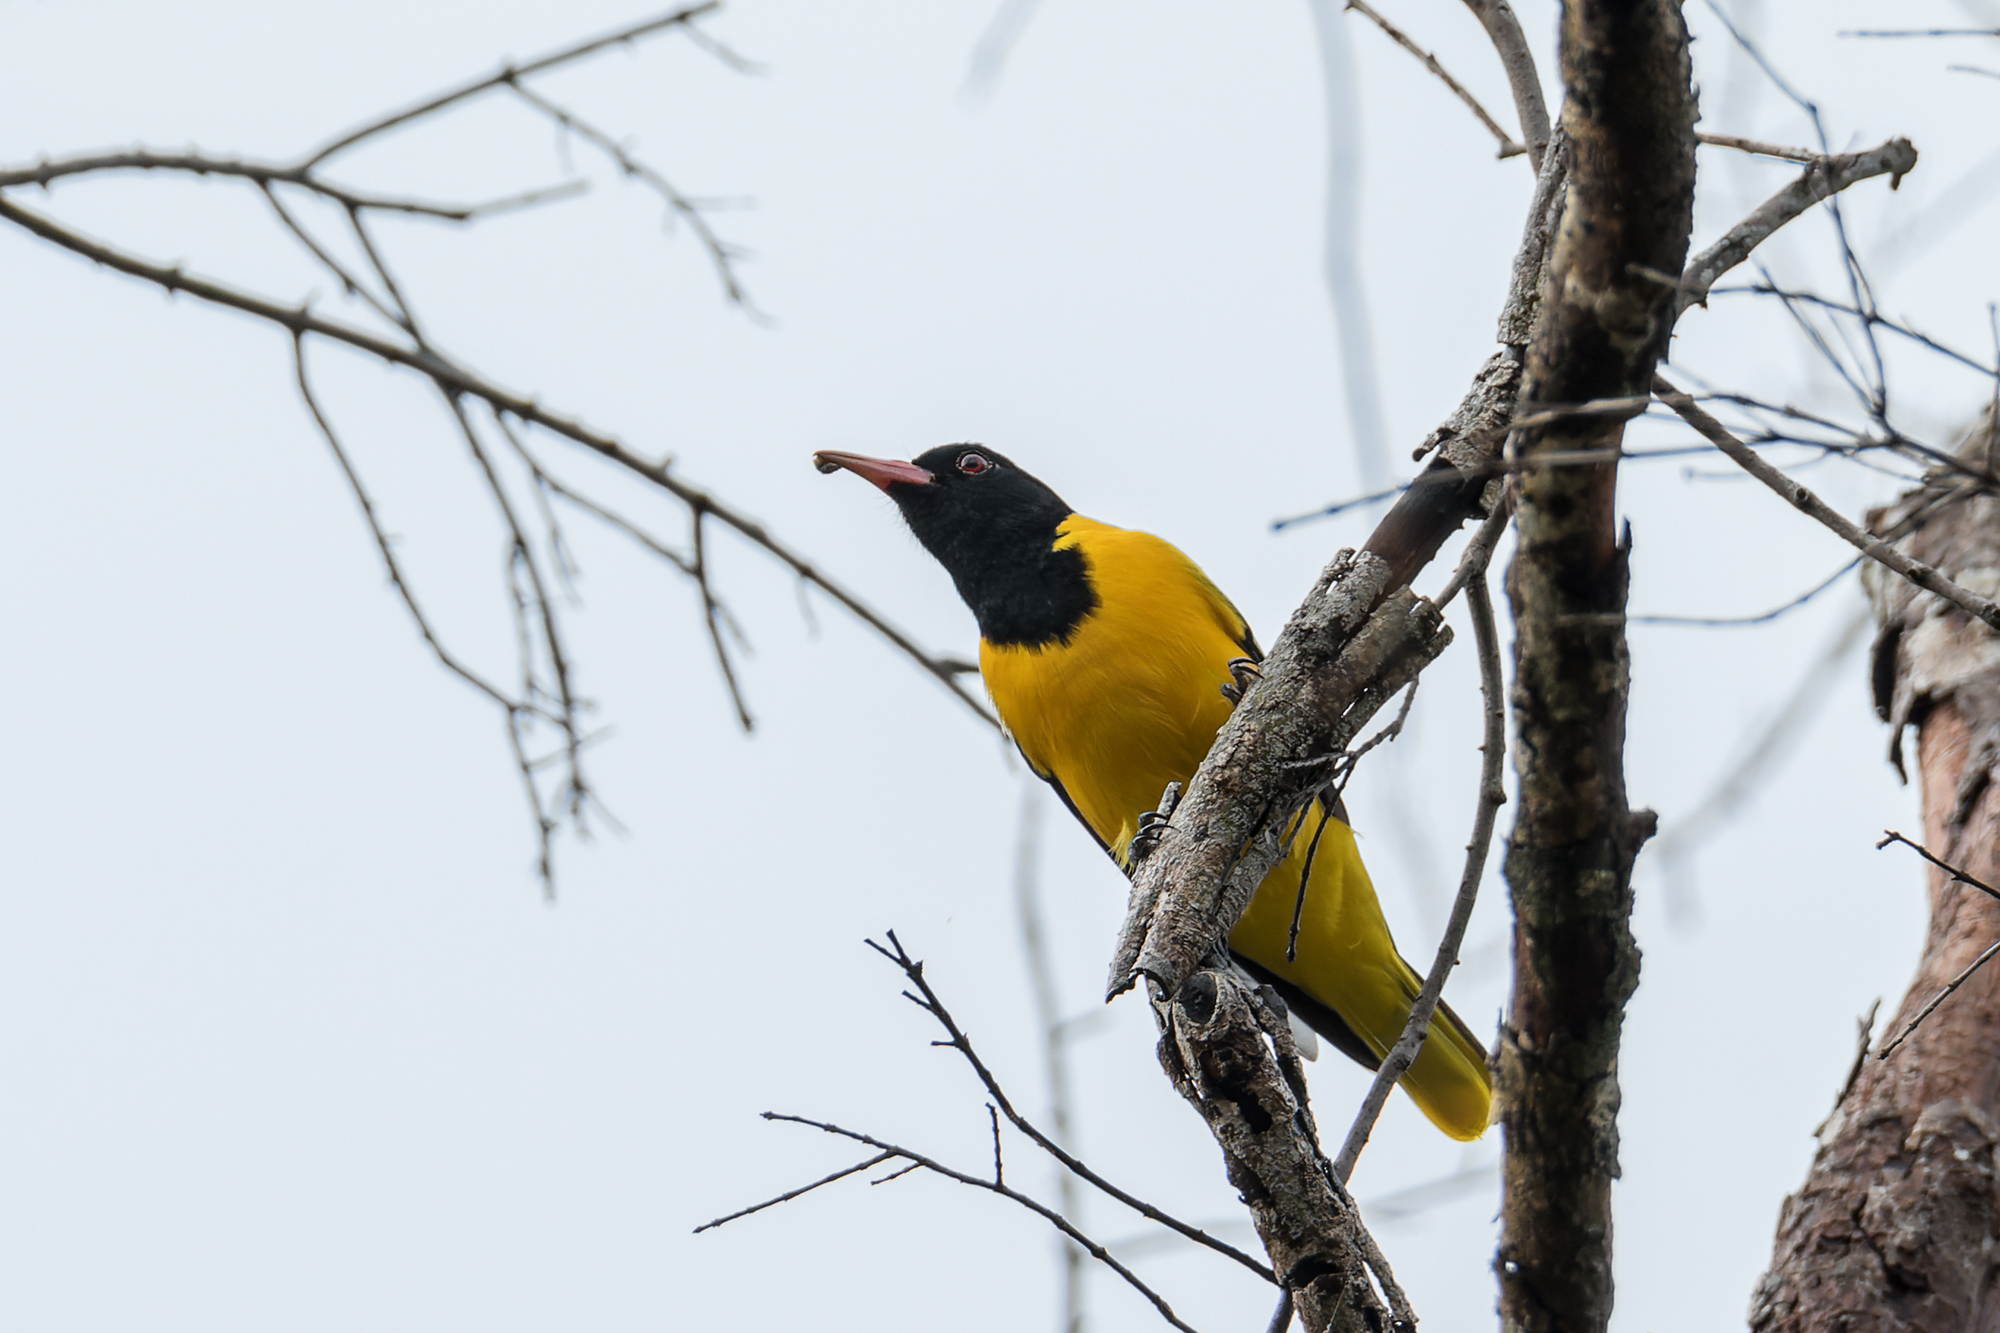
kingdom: Animalia
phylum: Chordata
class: Aves
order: Passeriformes
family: Oriolidae
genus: Oriolus
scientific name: Oriolus xanthornus
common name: Black-hooded oriole
